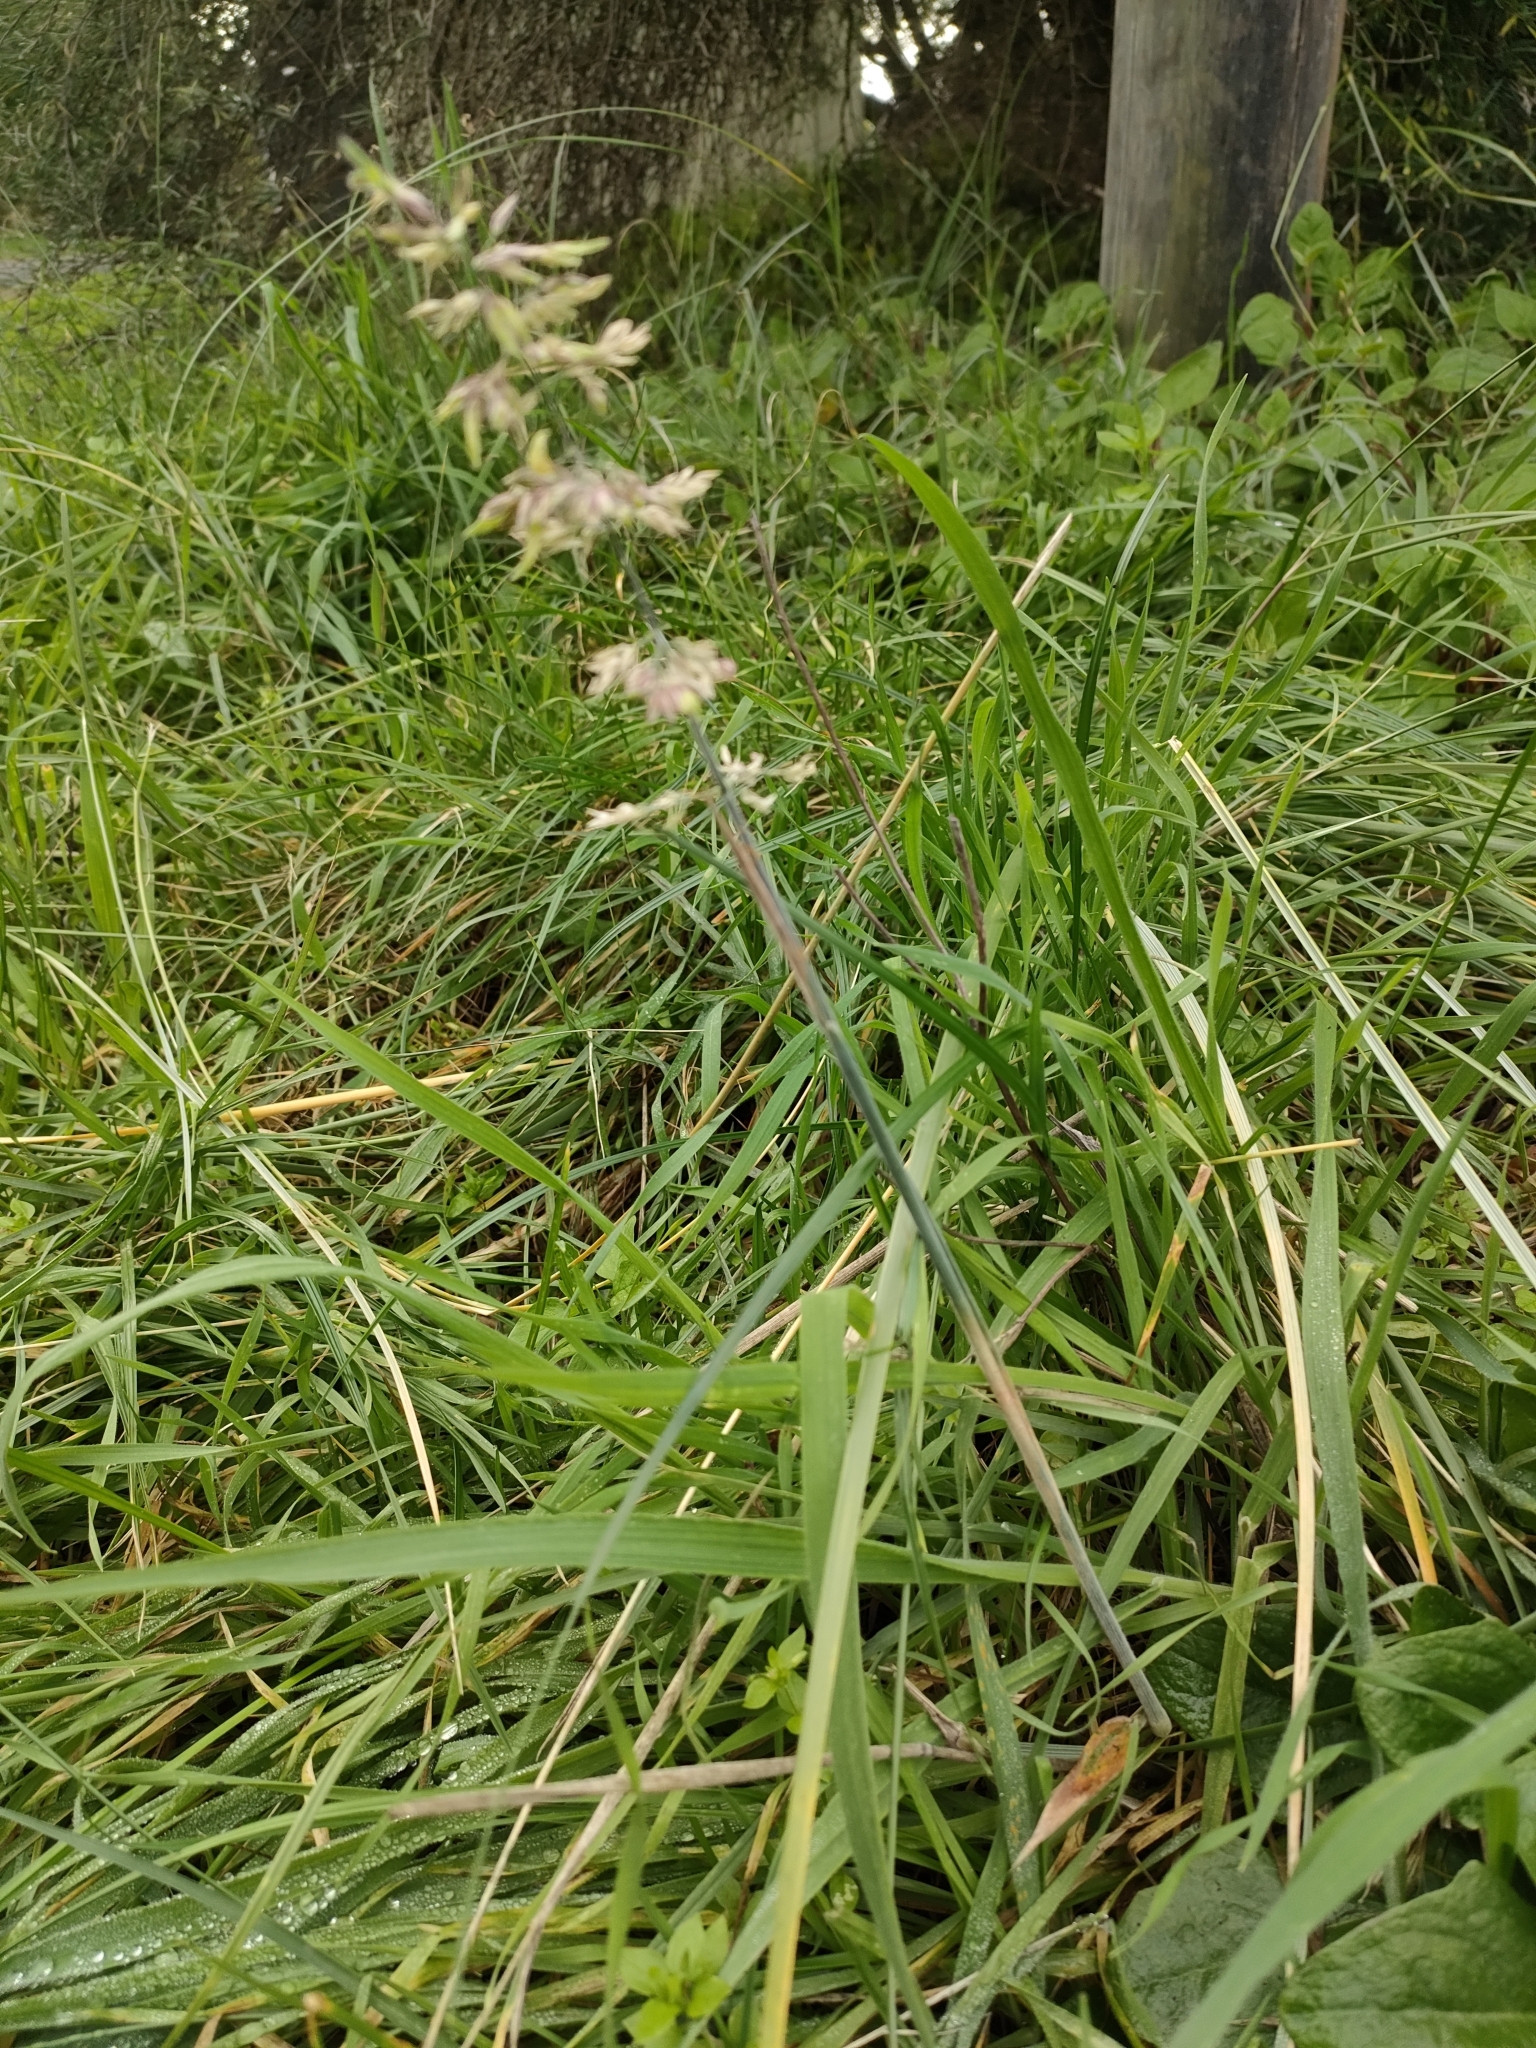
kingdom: Plantae
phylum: Tracheophyta
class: Liliopsida
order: Poales
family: Poaceae
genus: Holcus
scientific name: Holcus lanatus
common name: Yorkshire-fog
